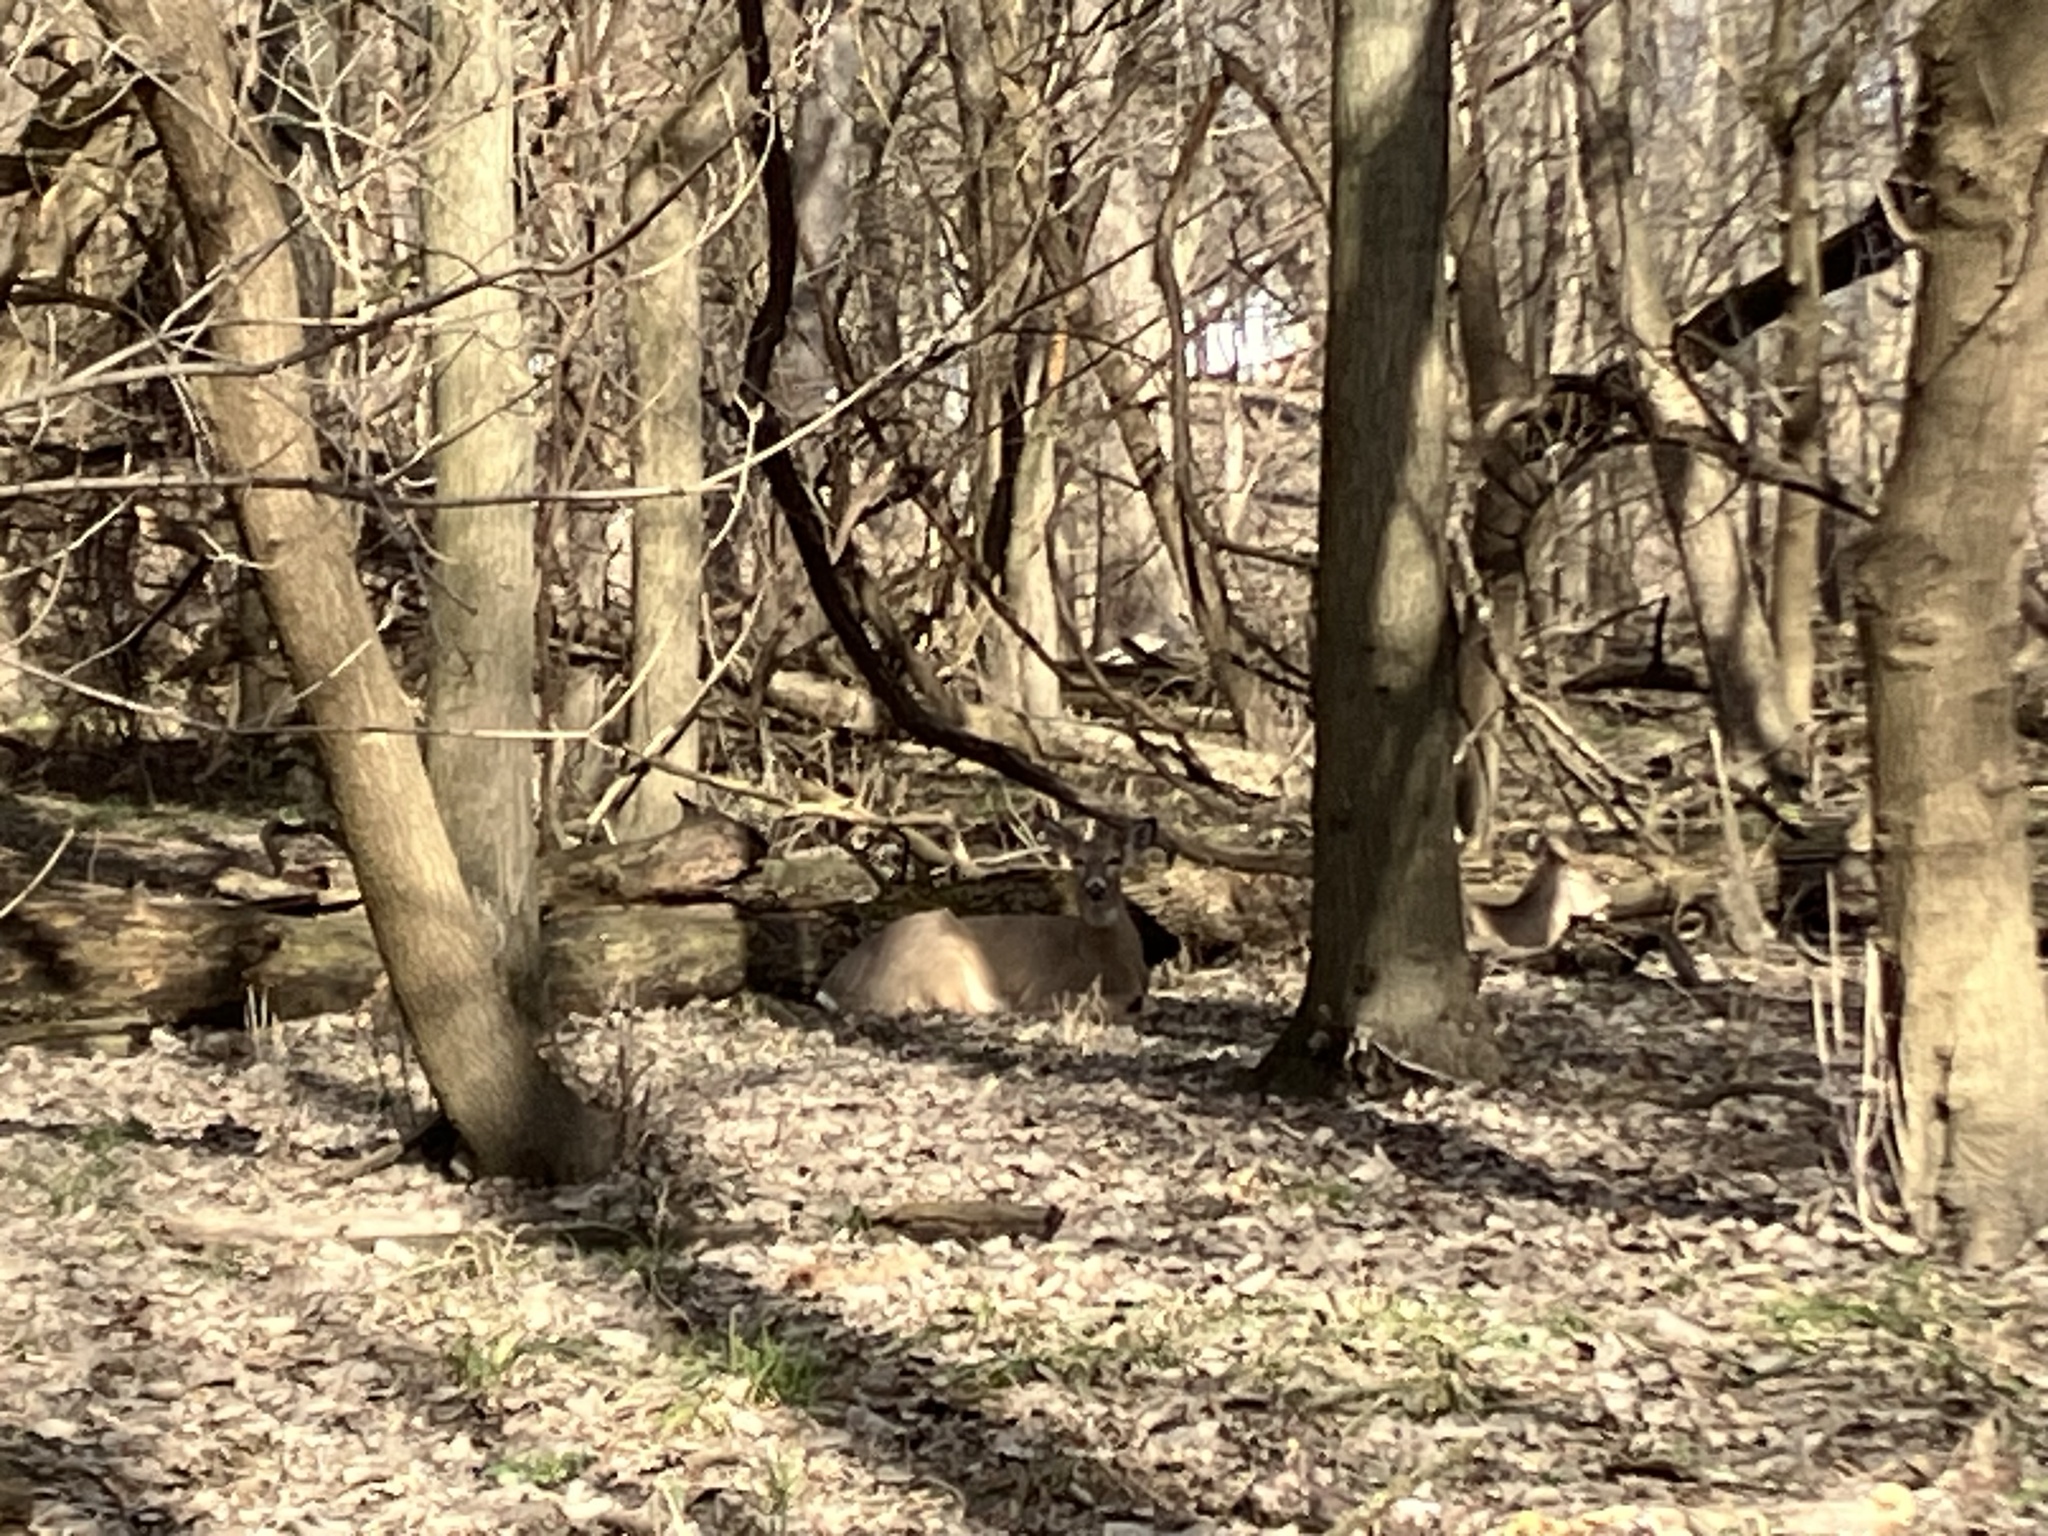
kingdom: Animalia
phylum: Chordata
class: Mammalia
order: Artiodactyla
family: Cervidae
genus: Odocoileus
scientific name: Odocoileus virginianus
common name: White-tailed deer
